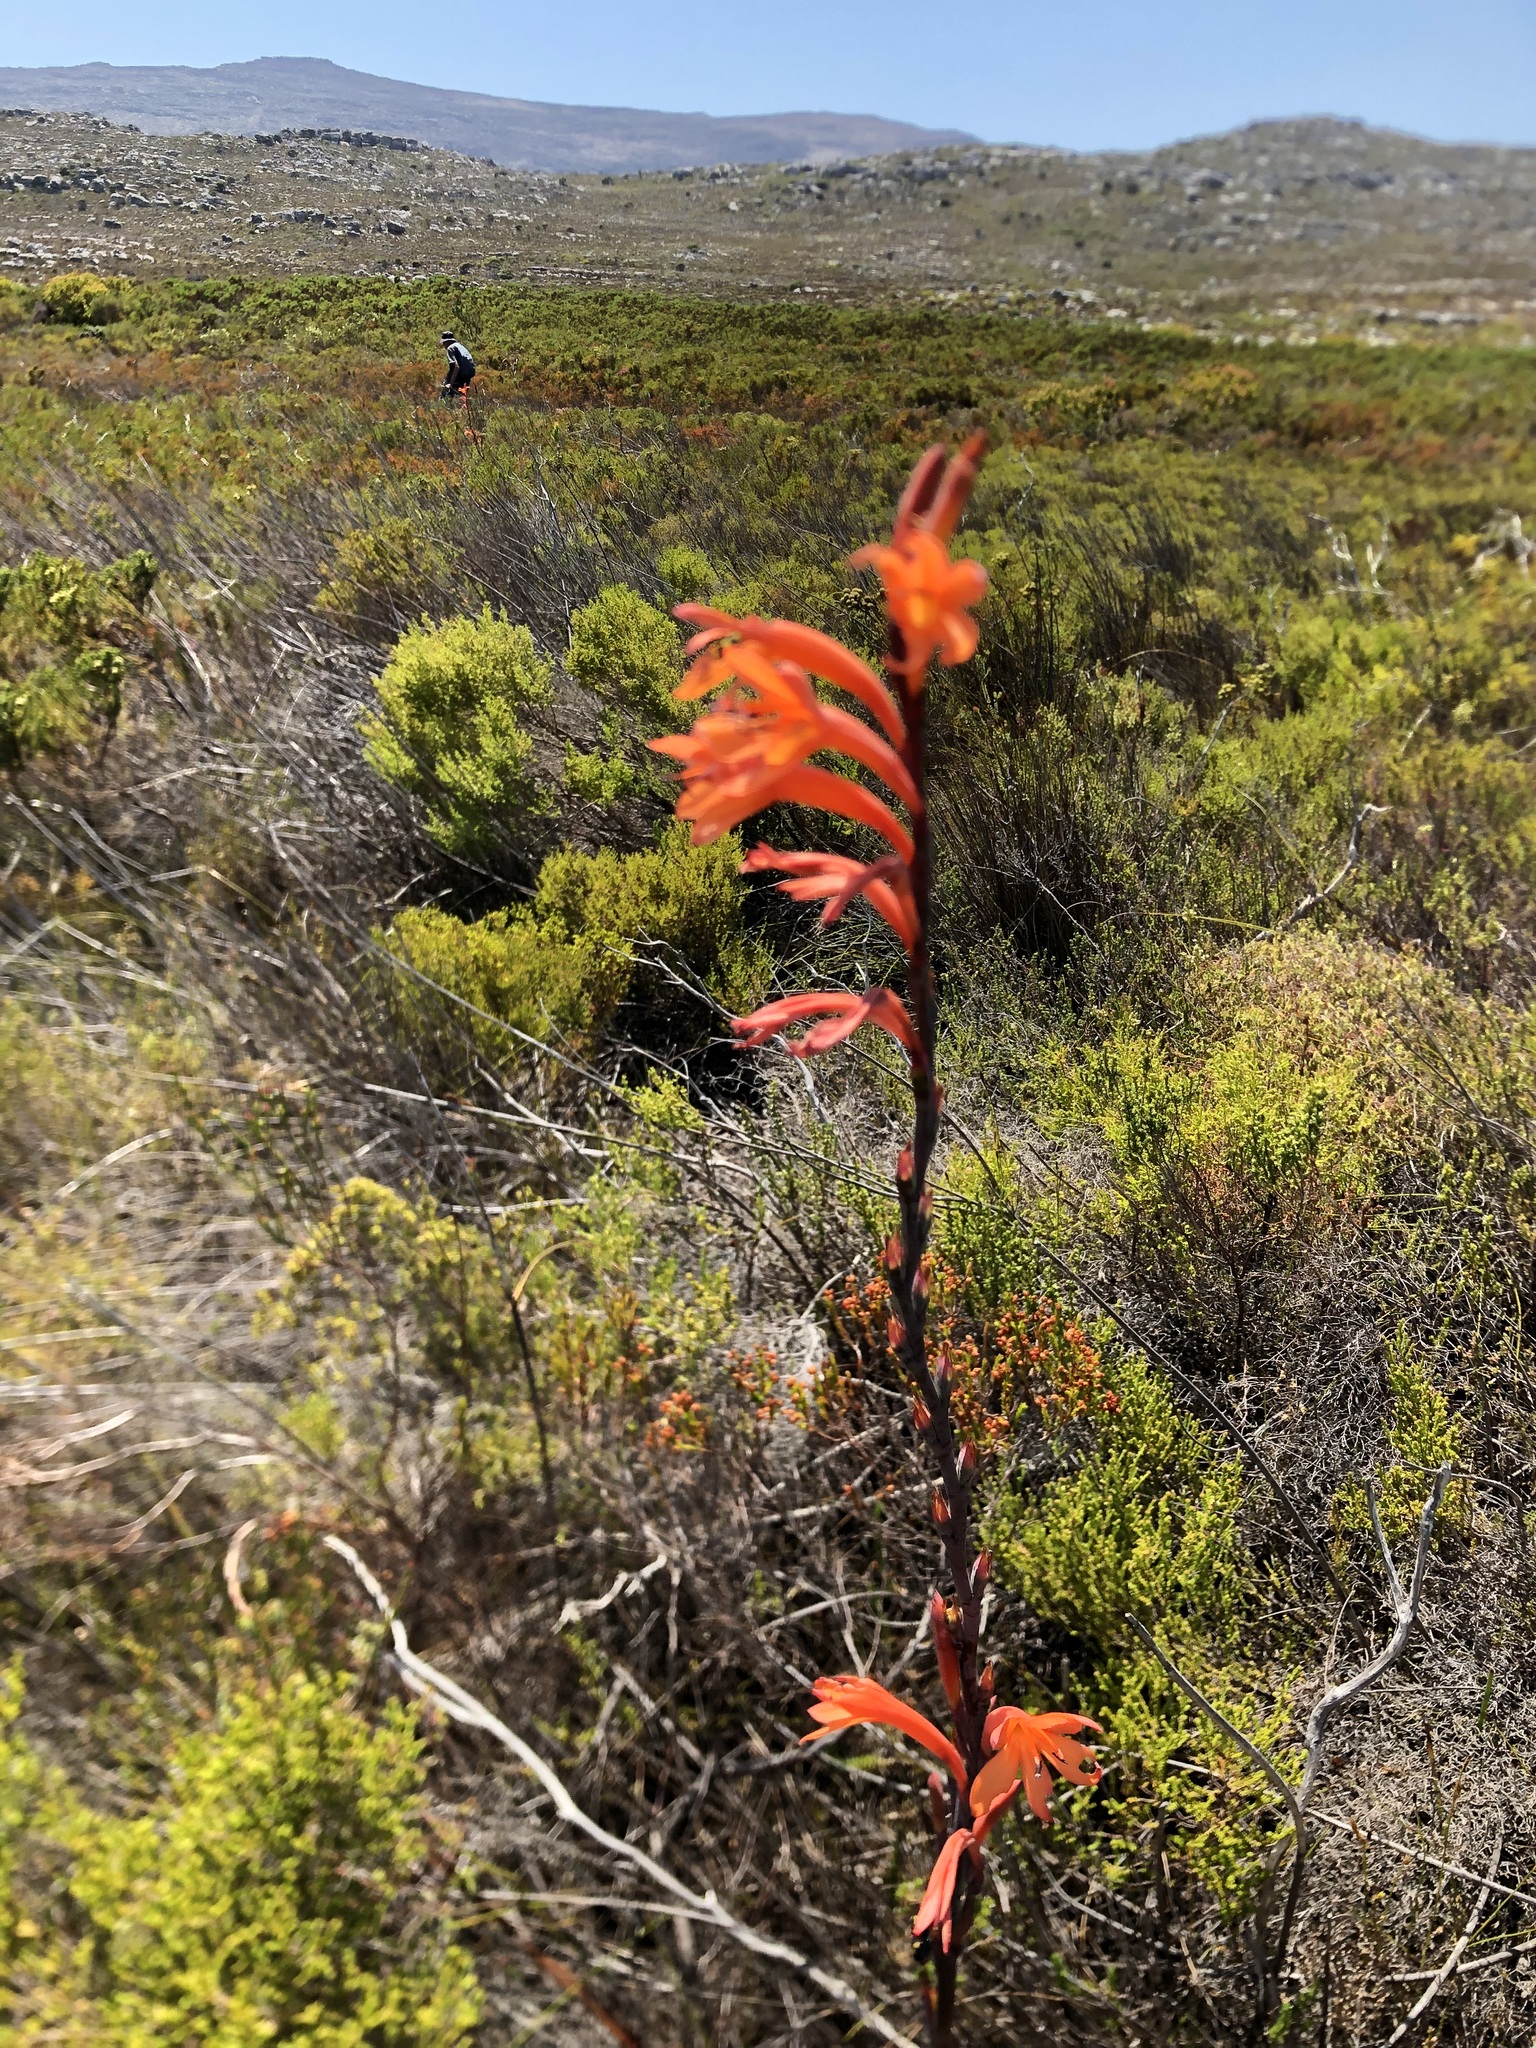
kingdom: Plantae
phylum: Tracheophyta
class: Liliopsida
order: Asparagales
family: Iridaceae
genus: Watsonia
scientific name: Watsonia tabularis
